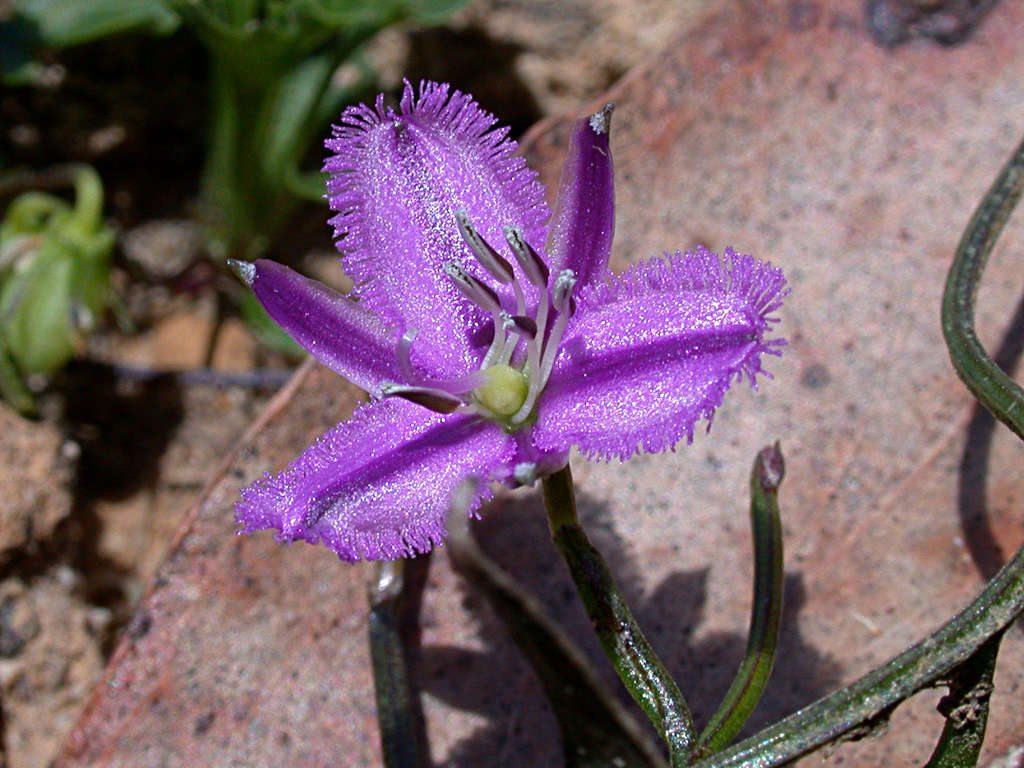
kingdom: Plantae
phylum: Tracheophyta
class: Liliopsida
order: Asparagales
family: Asparagaceae
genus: Thysanotus
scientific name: Thysanotus patersonii
